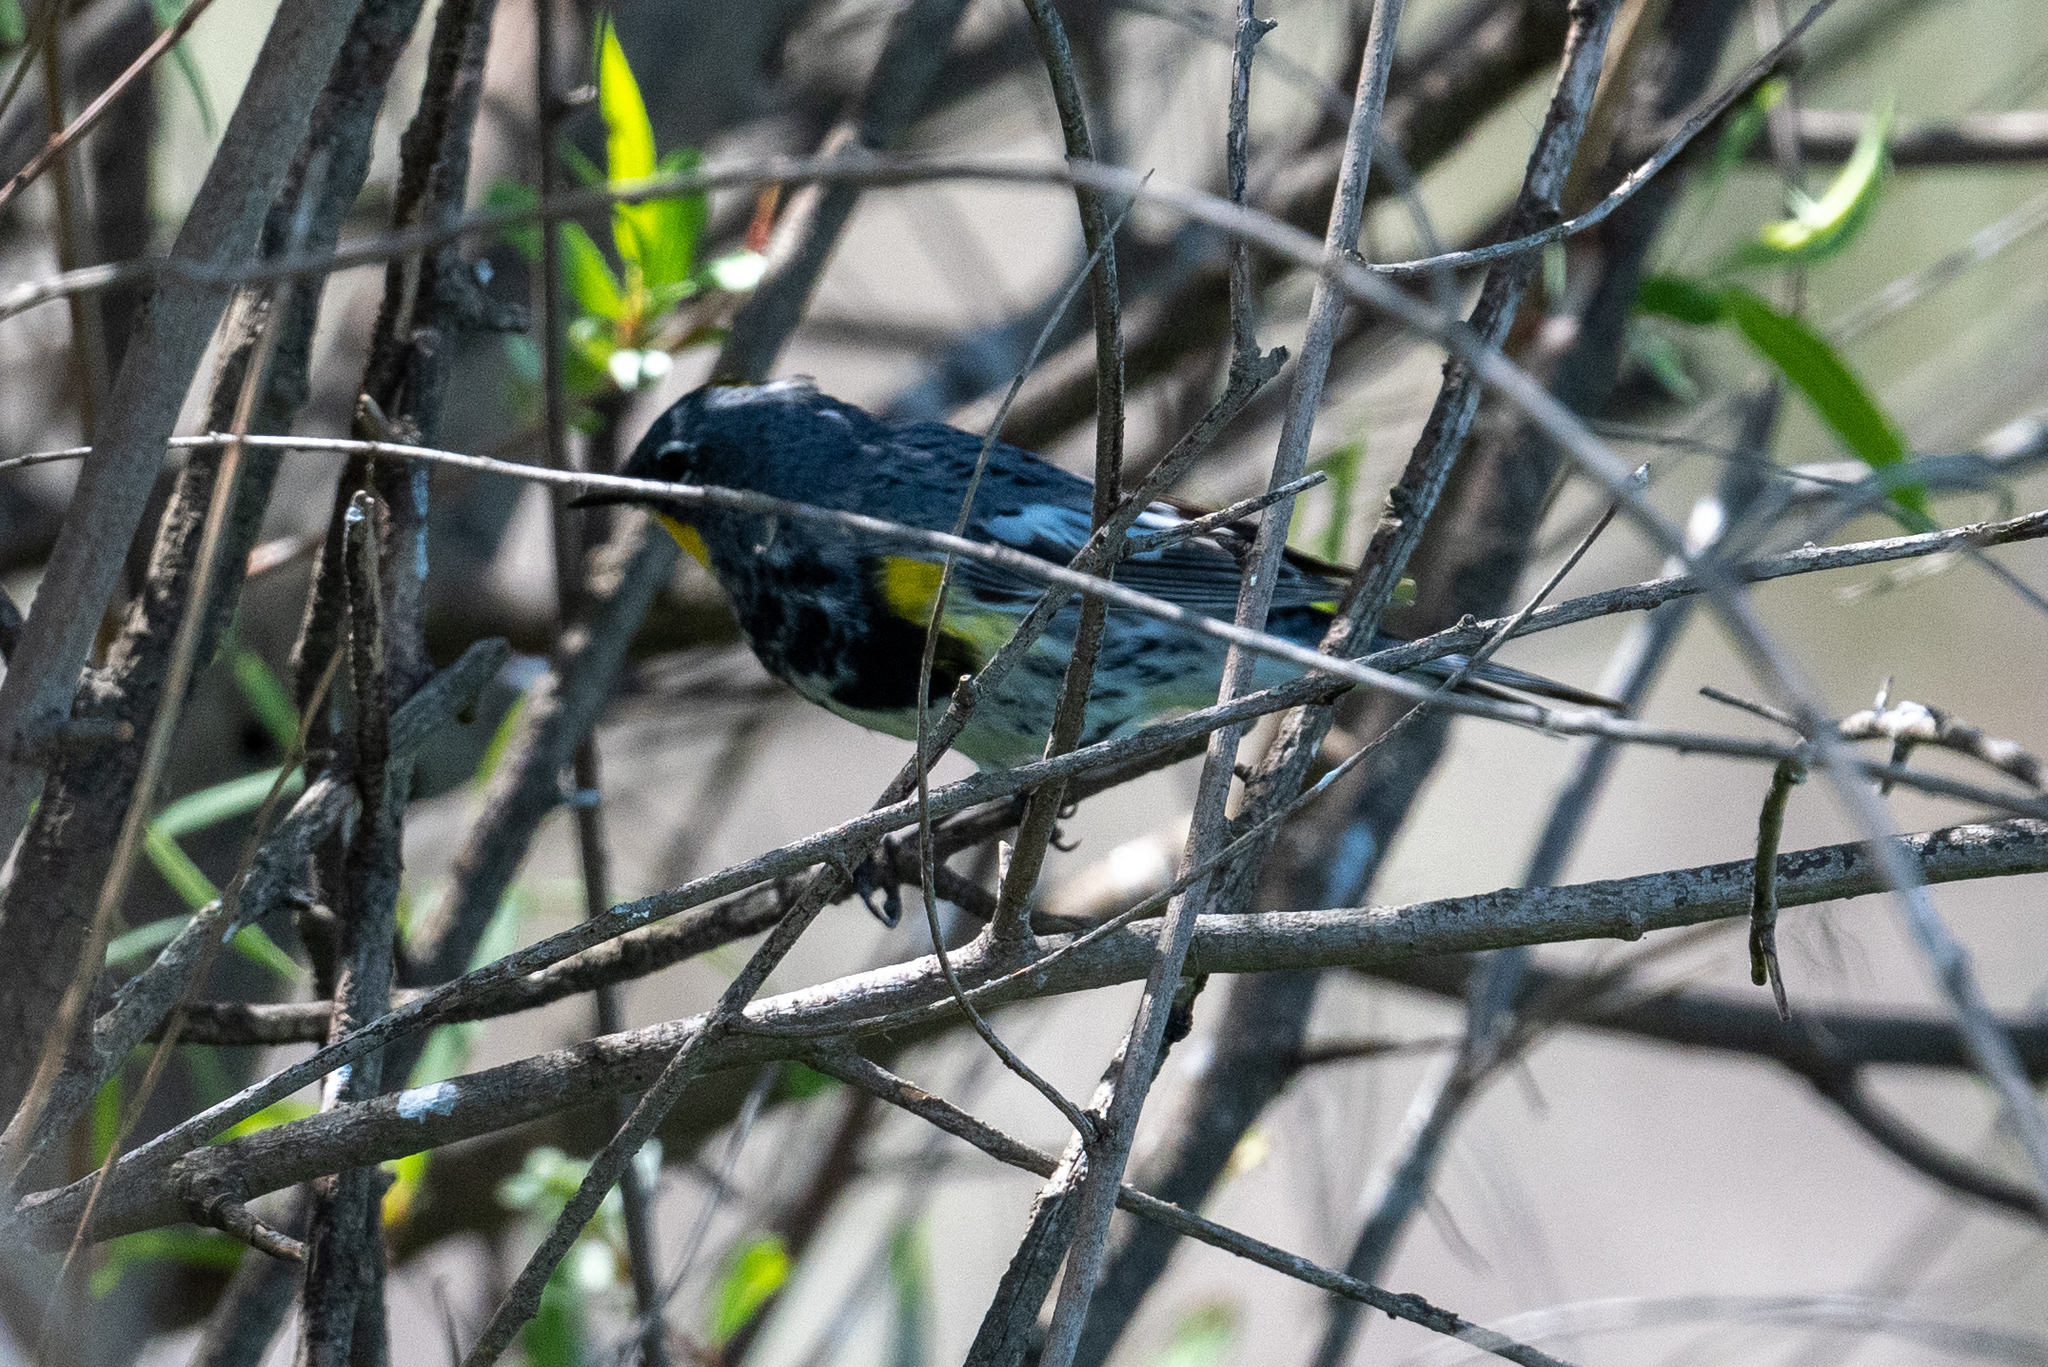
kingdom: Animalia
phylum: Chordata
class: Aves
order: Passeriformes
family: Parulidae
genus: Setophaga
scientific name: Setophaga coronata
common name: Myrtle warbler
